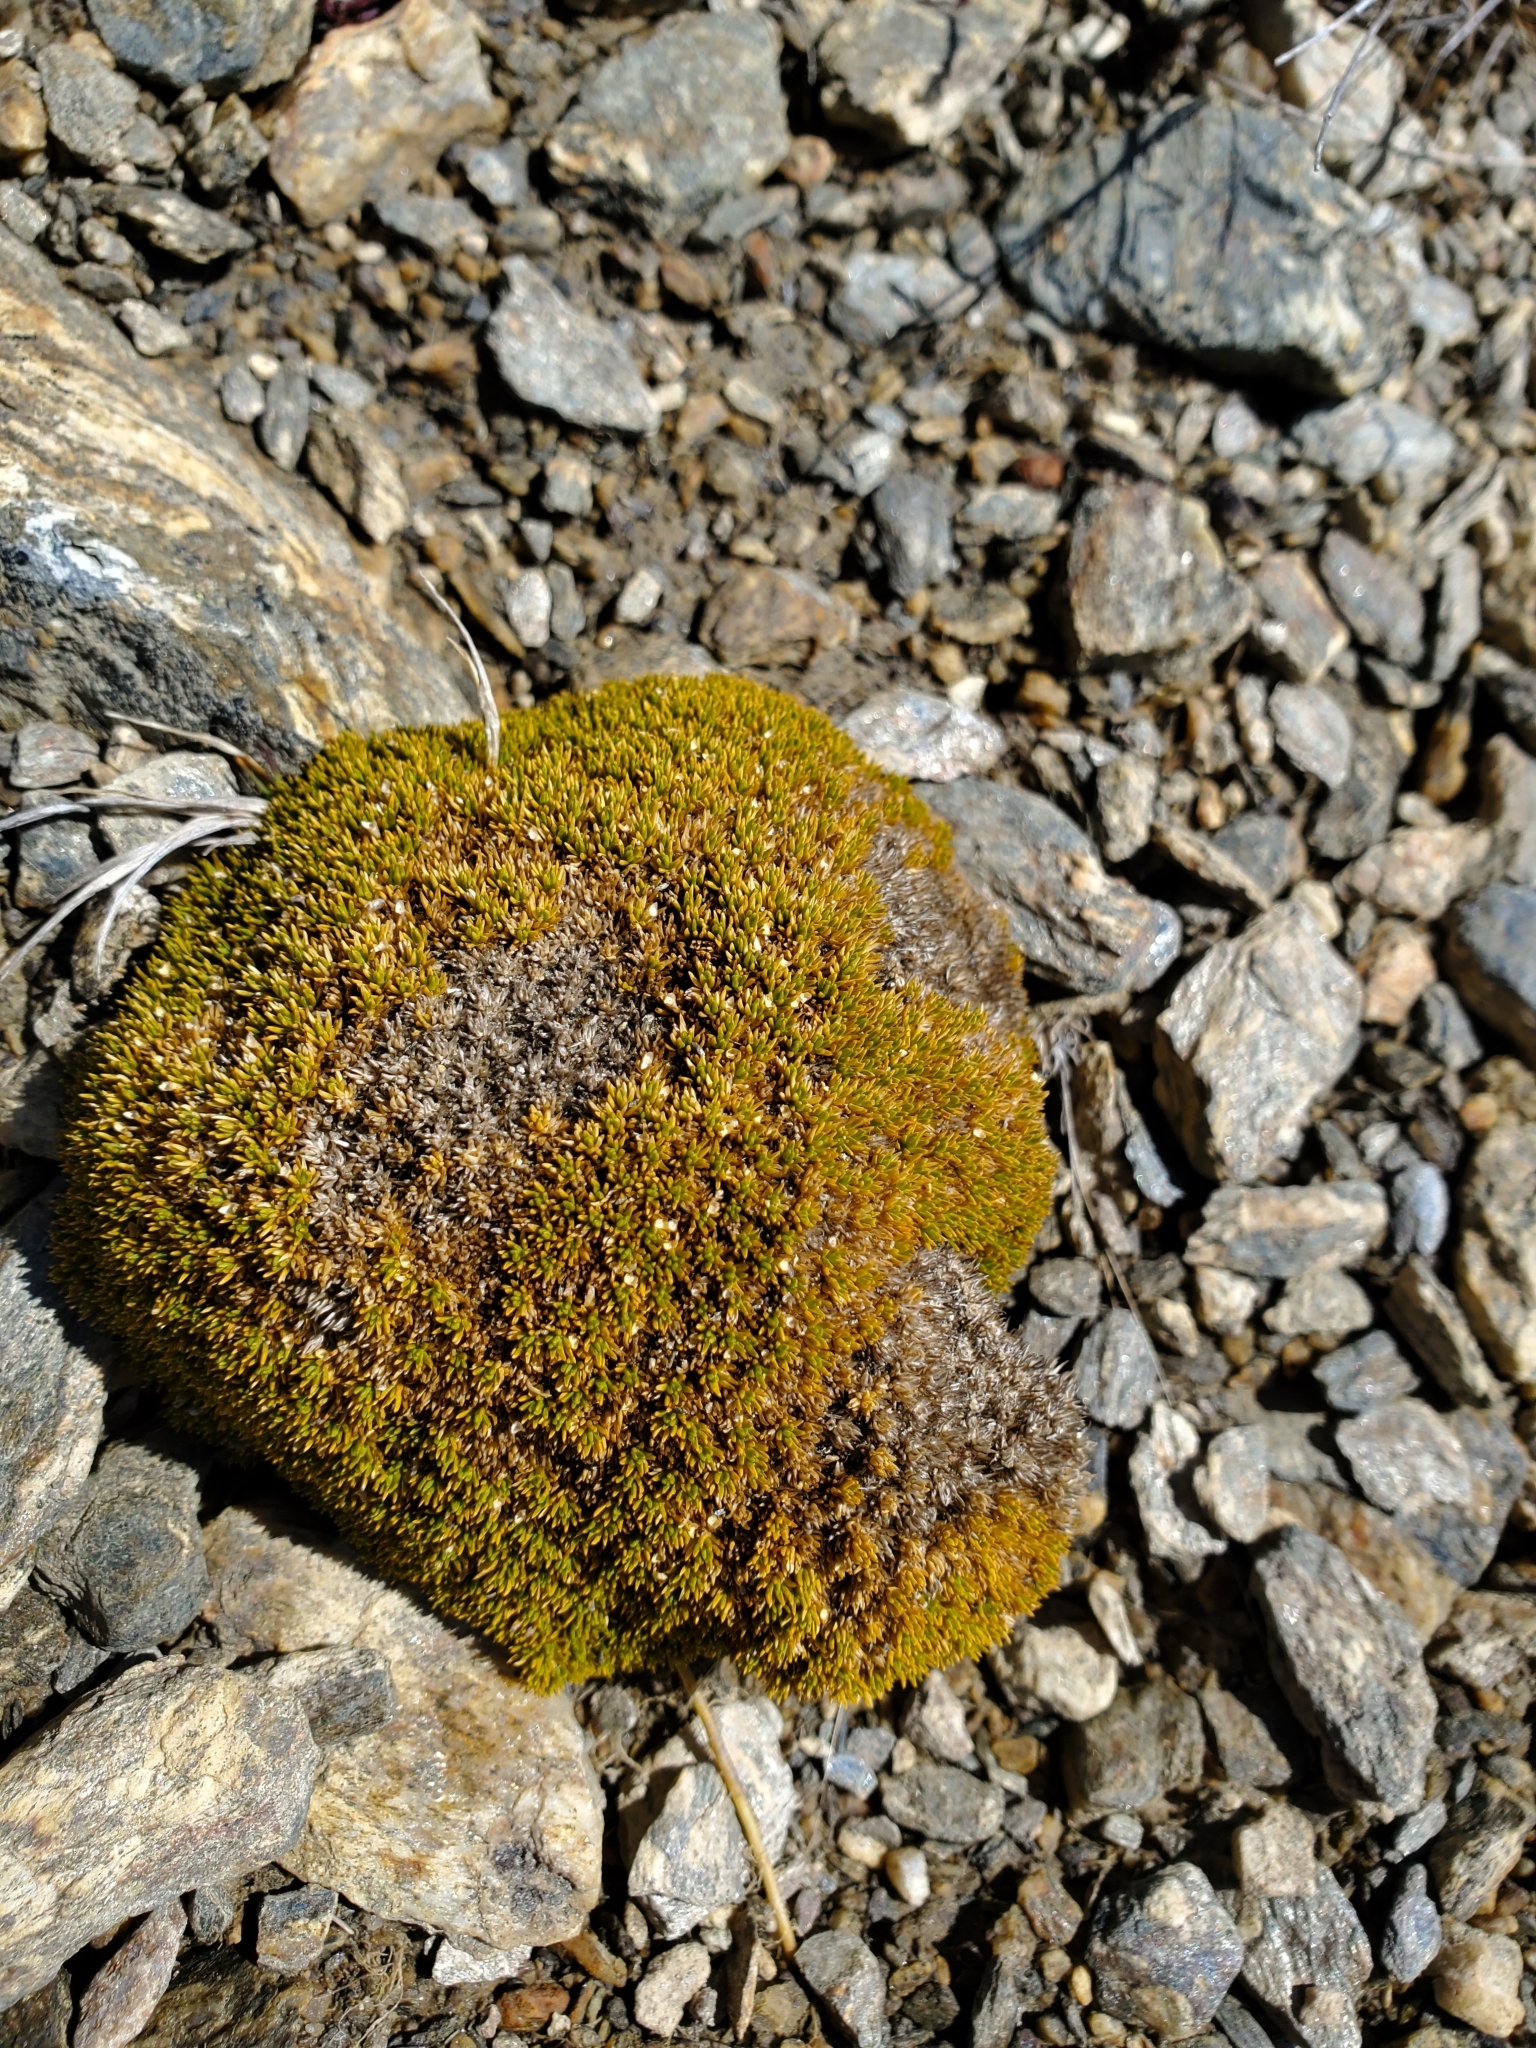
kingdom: Plantae
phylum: Tracheophyta
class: Magnoliopsida
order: Caryophyllales
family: Caryophyllaceae
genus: Scleranthus
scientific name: Scleranthus uniflorus
